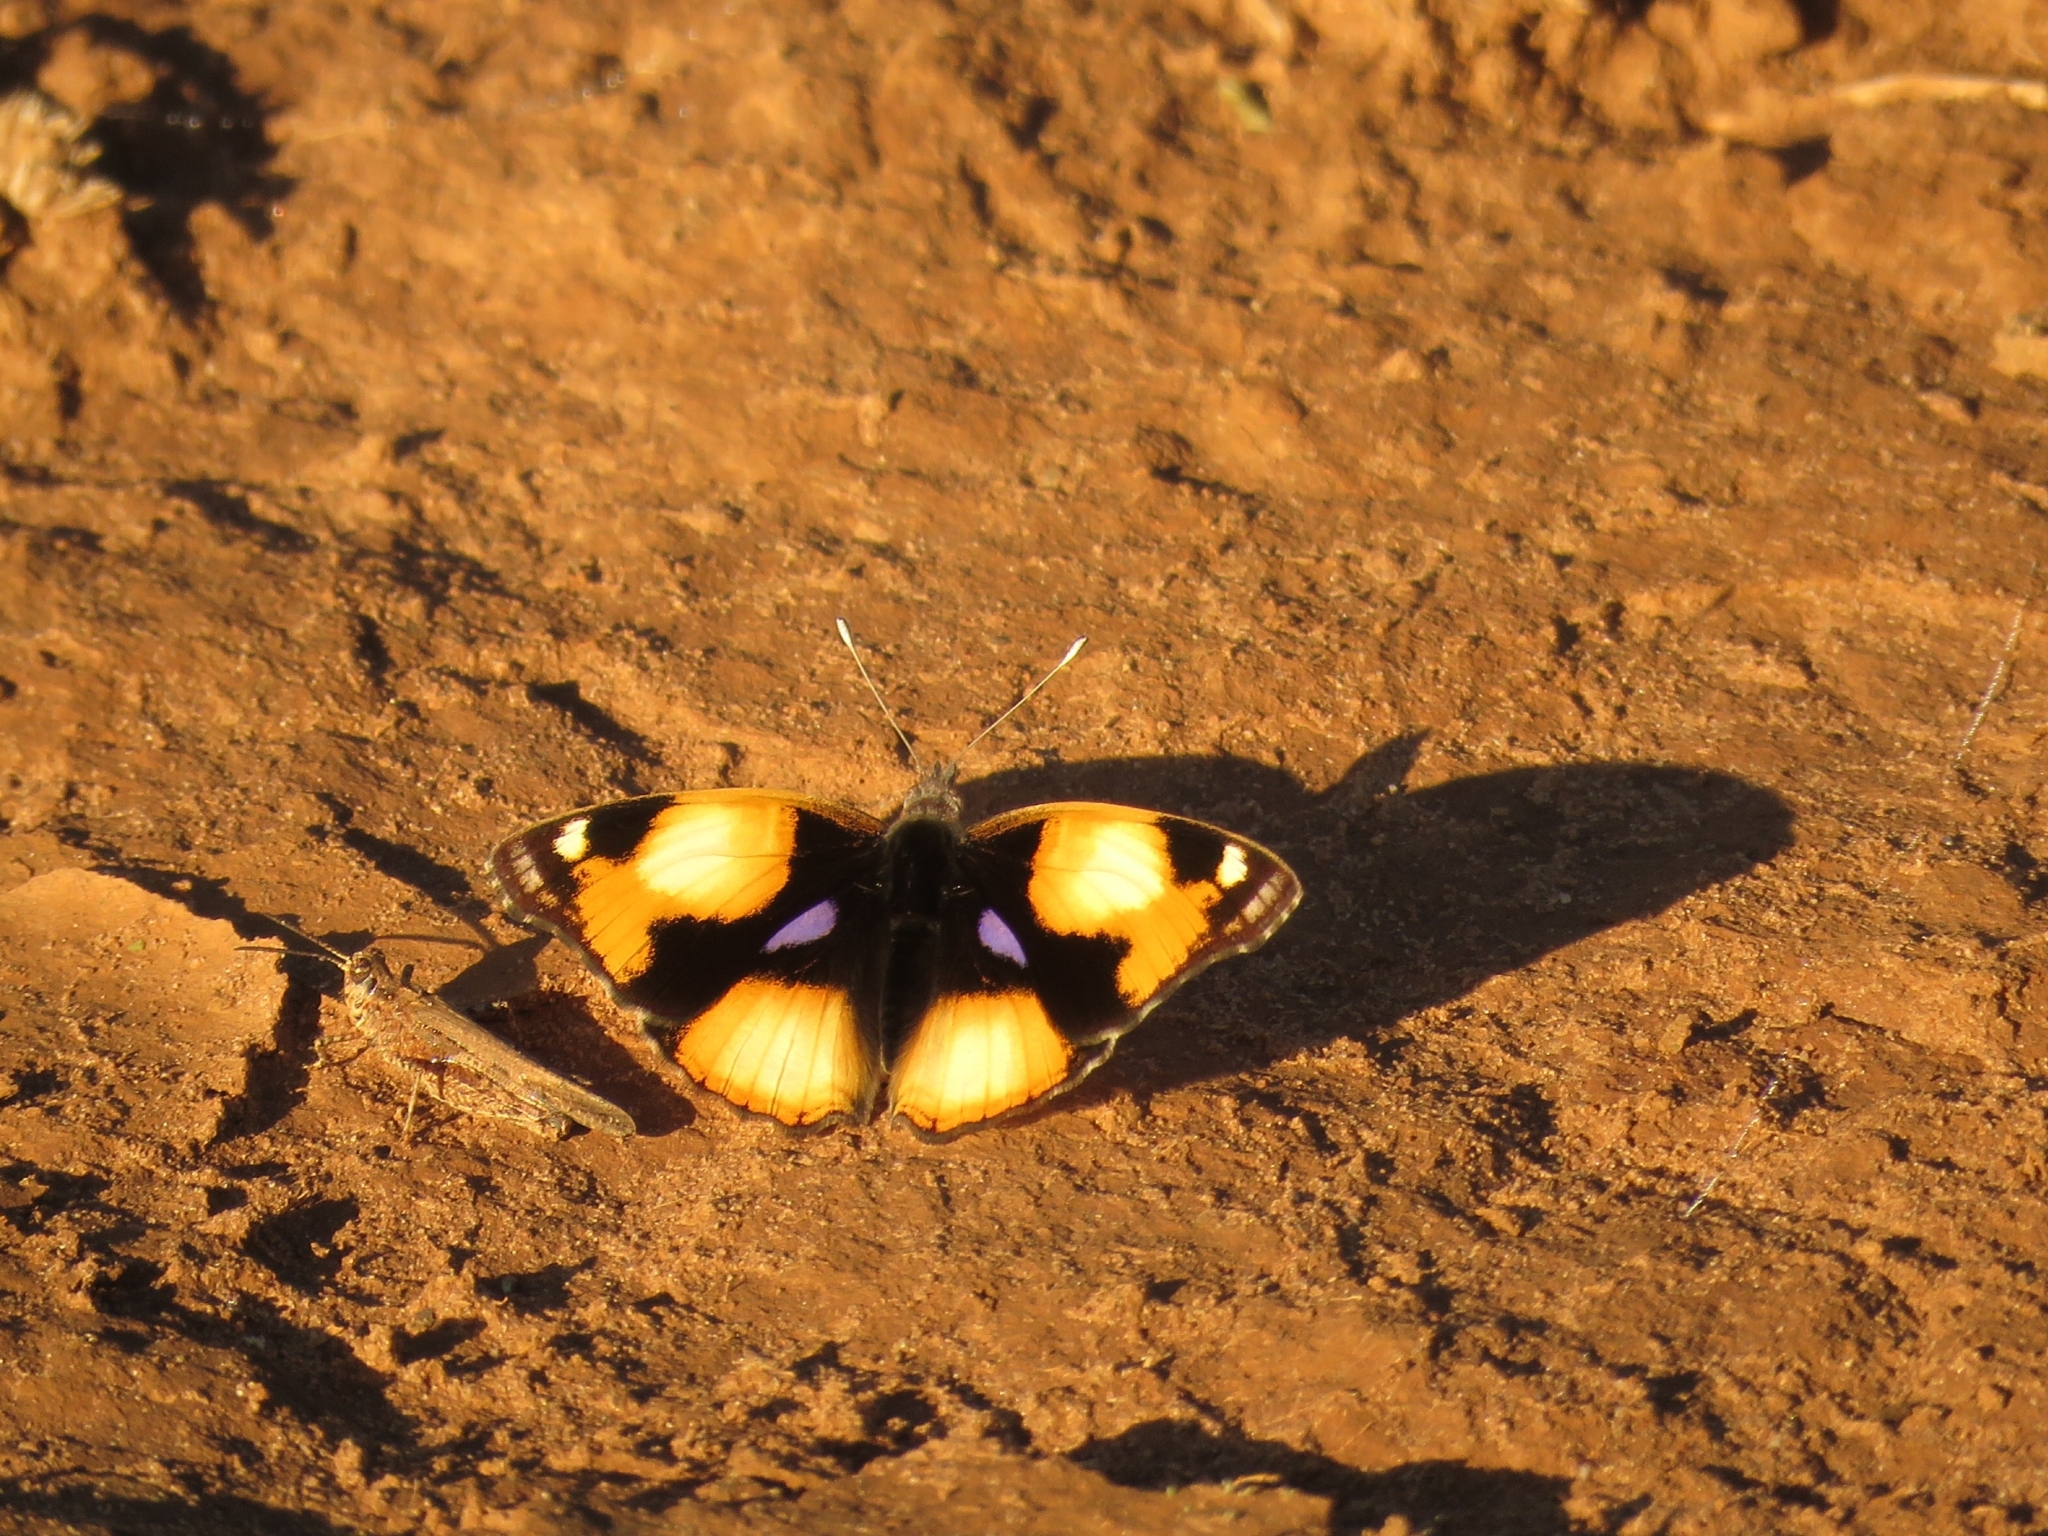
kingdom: Animalia
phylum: Arthropoda
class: Insecta
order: Lepidoptera
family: Nymphalidae
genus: Junonia
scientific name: Junonia hierta
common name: Yellow pansy
